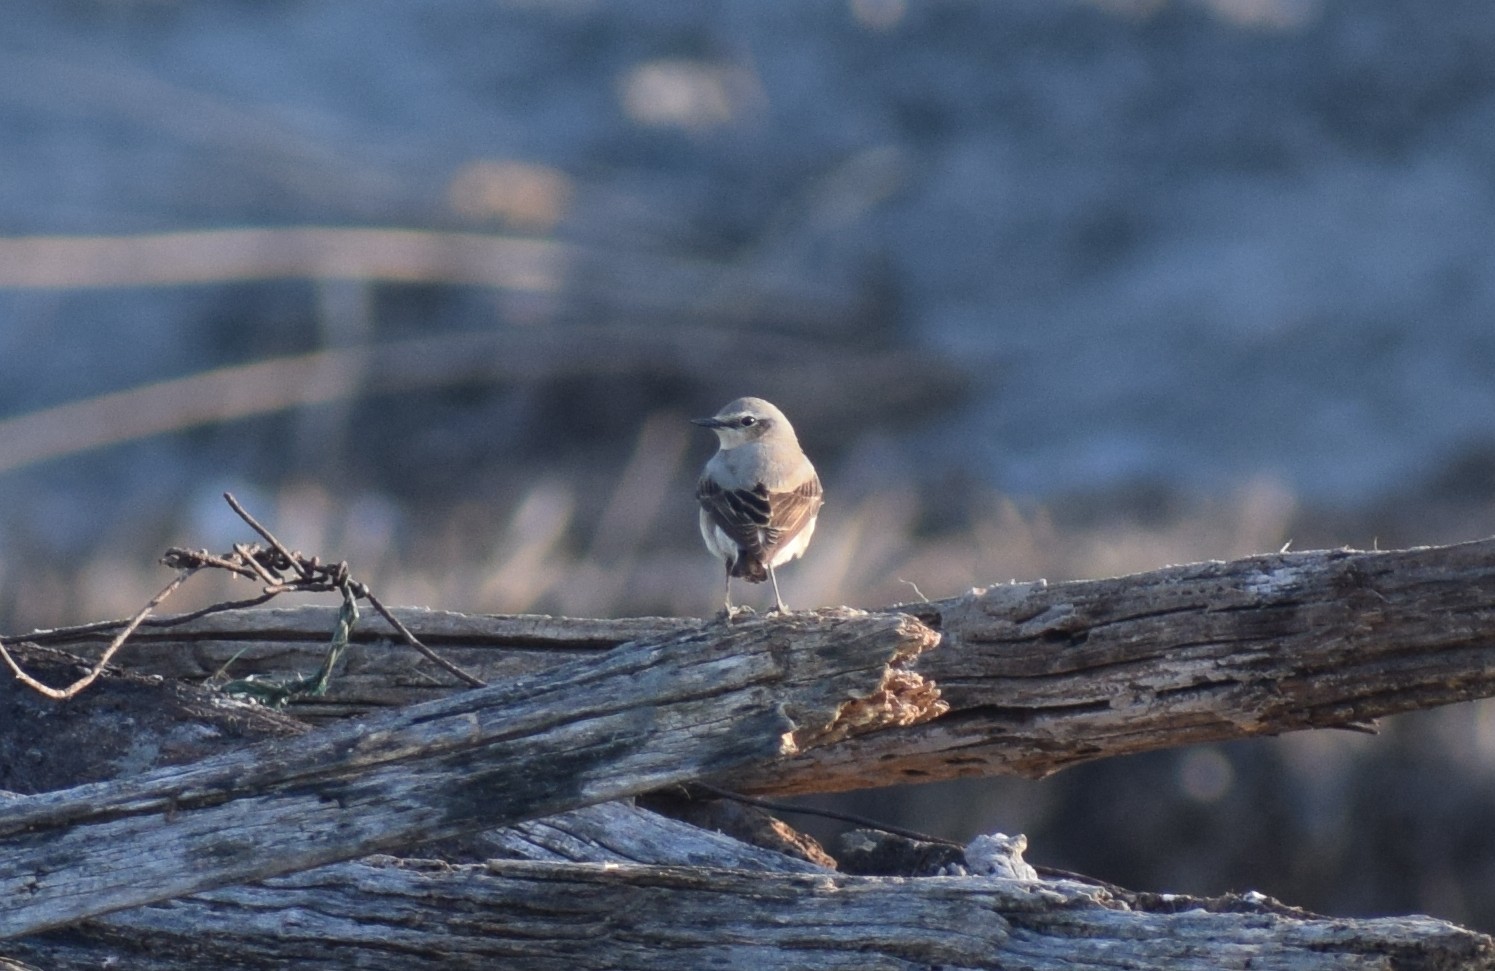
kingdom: Animalia
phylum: Chordata
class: Aves
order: Passeriformes
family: Muscicapidae
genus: Oenanthe
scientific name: Oenanthe oenanthe
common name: Northern wheatear
